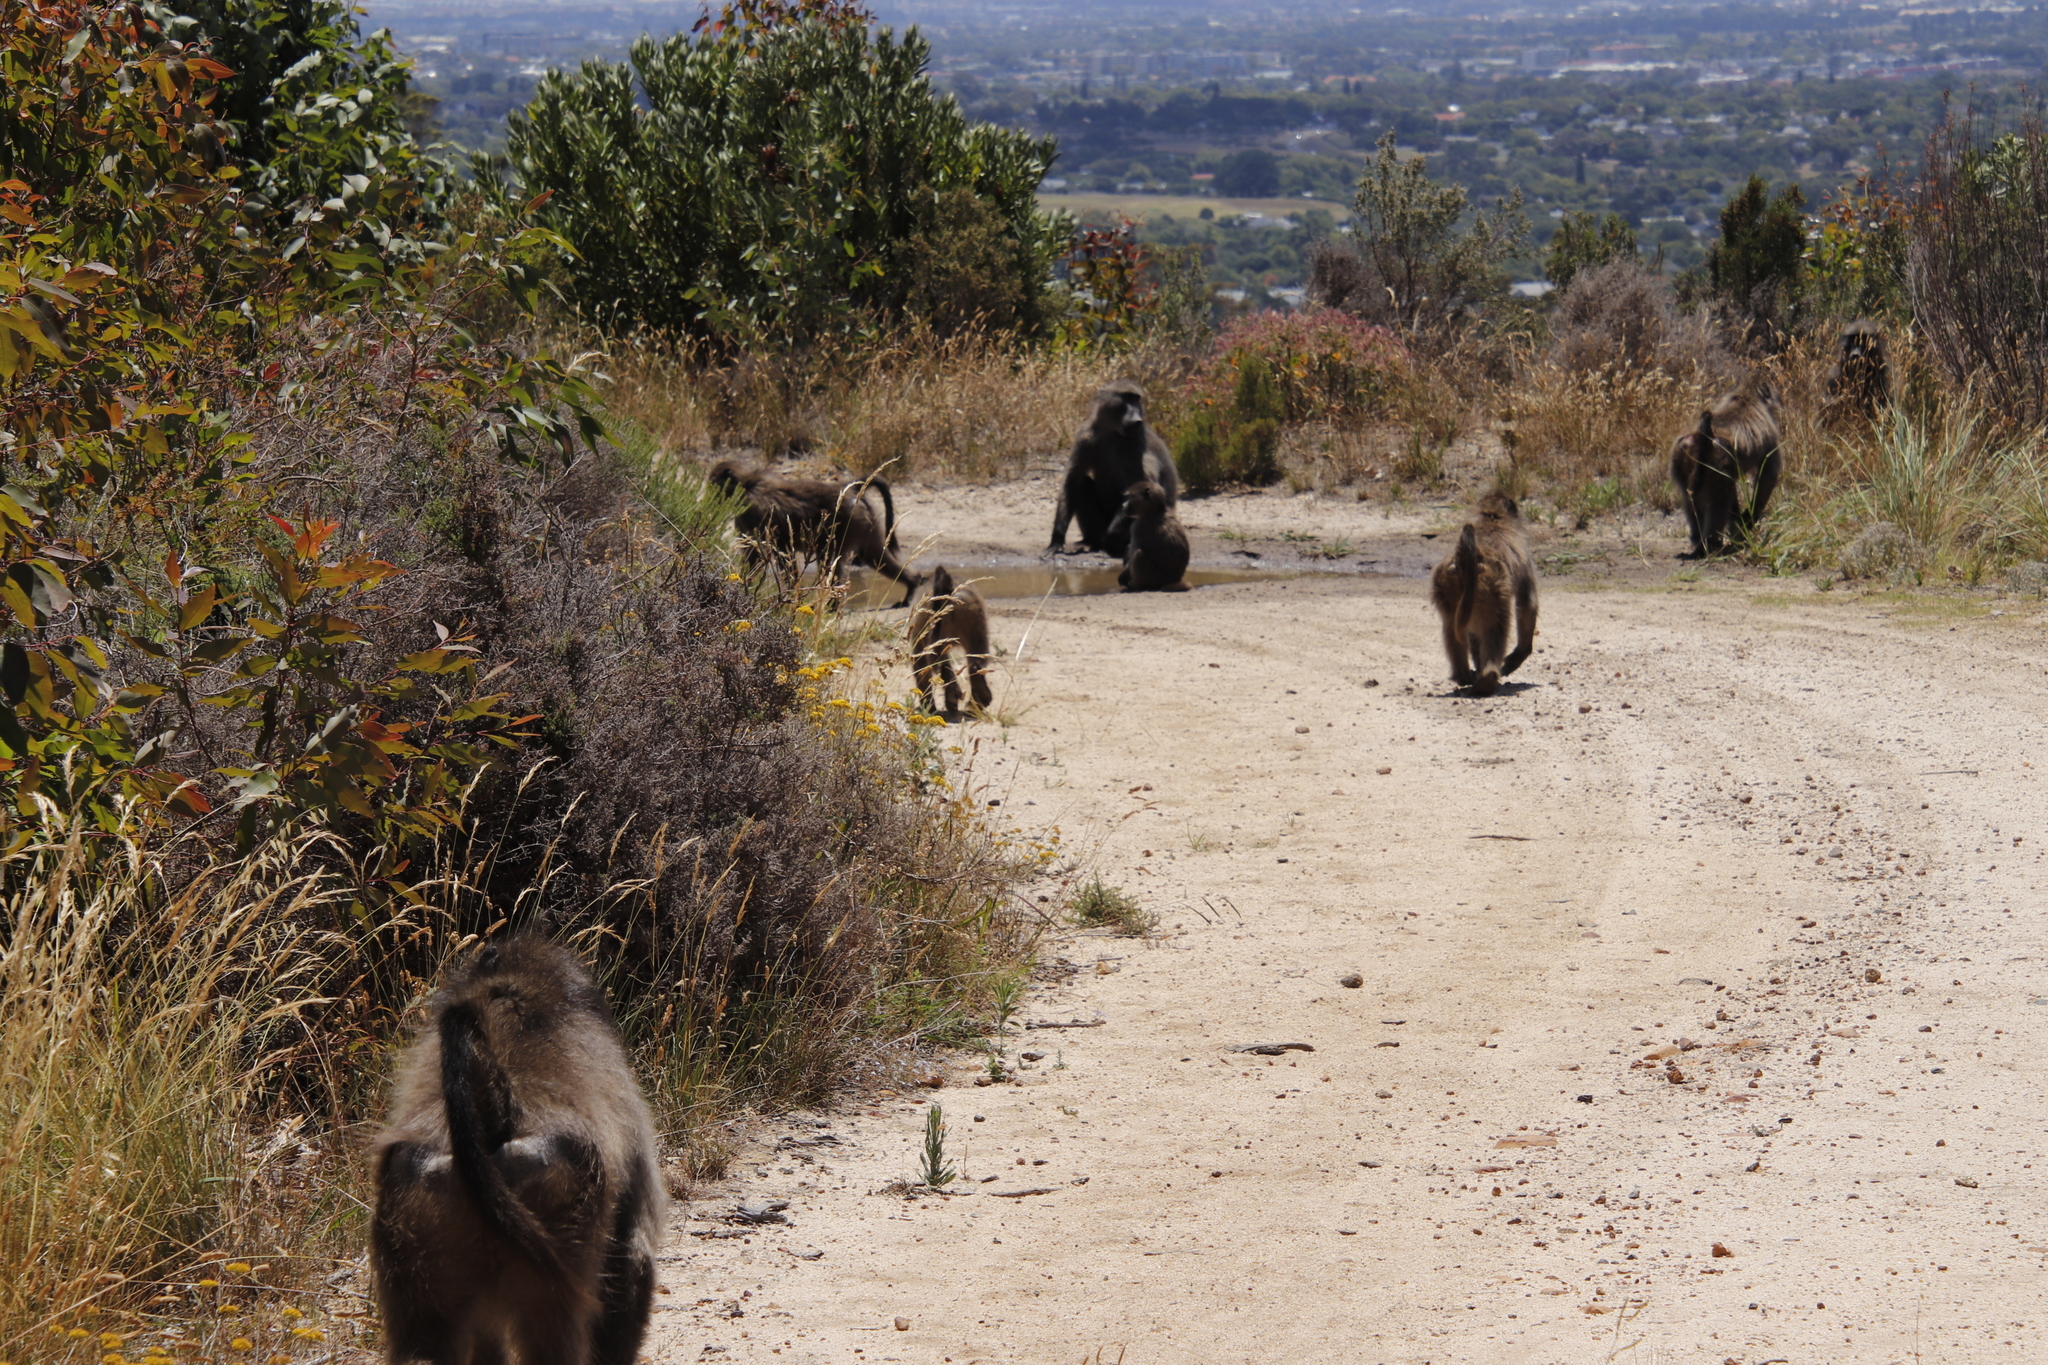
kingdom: Animalia
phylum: Chordata
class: Mammalia
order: Primates
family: Cercopithecidae
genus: Papio
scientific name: Papio ursinus
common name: Chacma baboon
